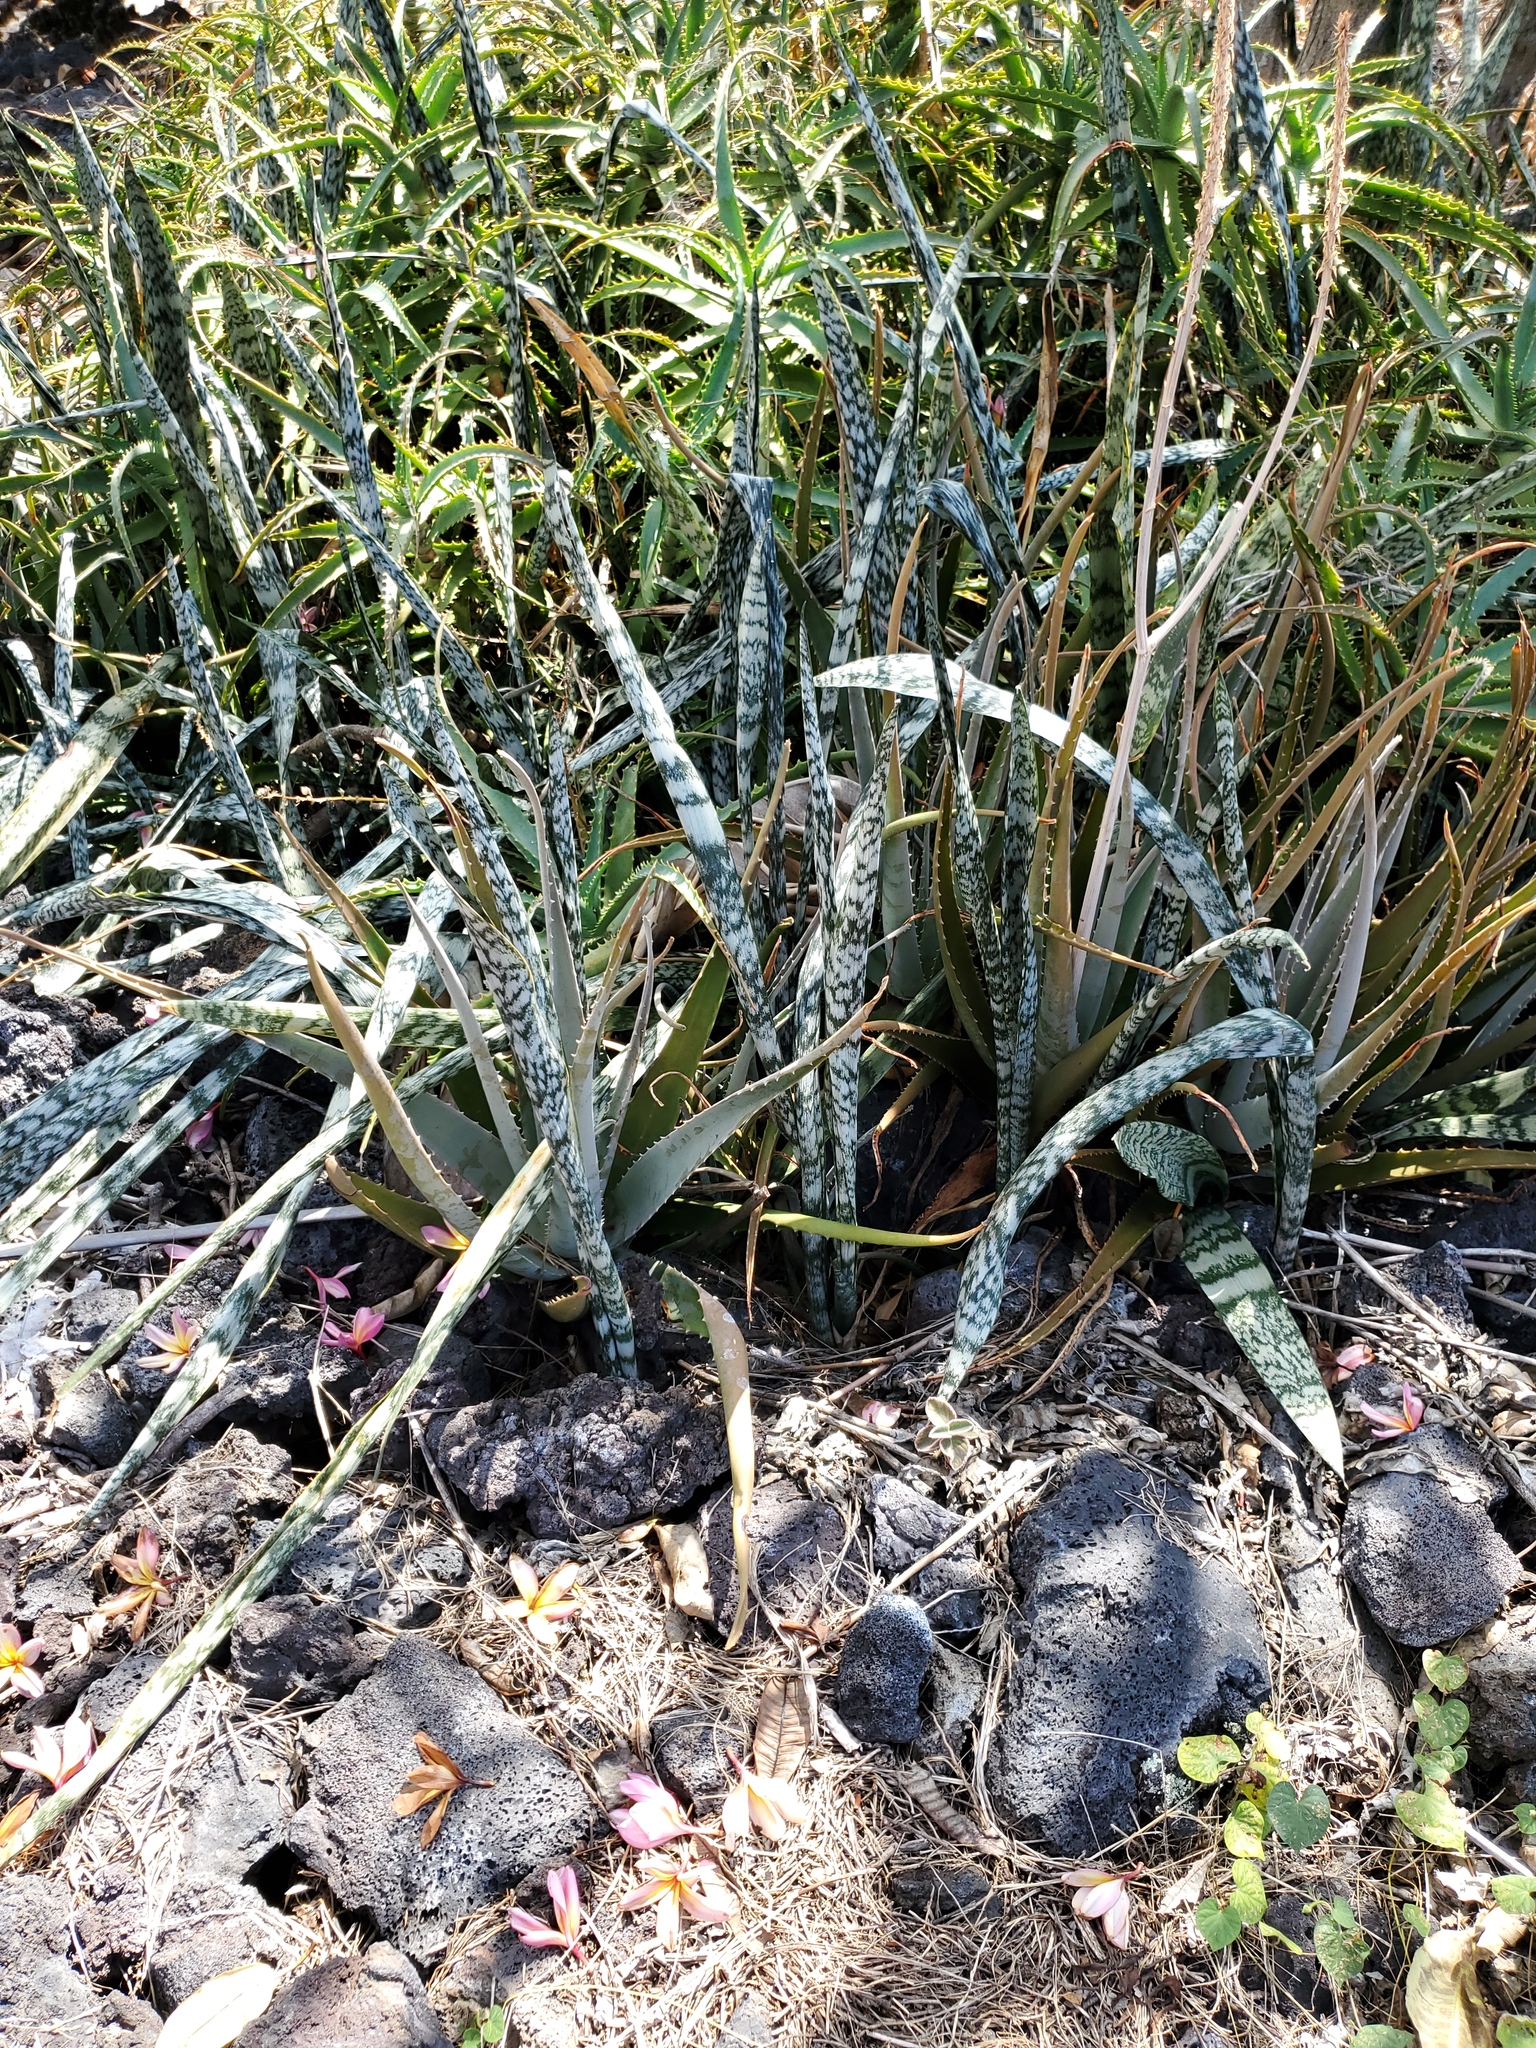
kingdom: Plantae
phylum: Tracheophyta
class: Liliopsida
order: Asparagales
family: Asparagaceae
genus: Dracaena
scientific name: Dracaena hyacinthoides
